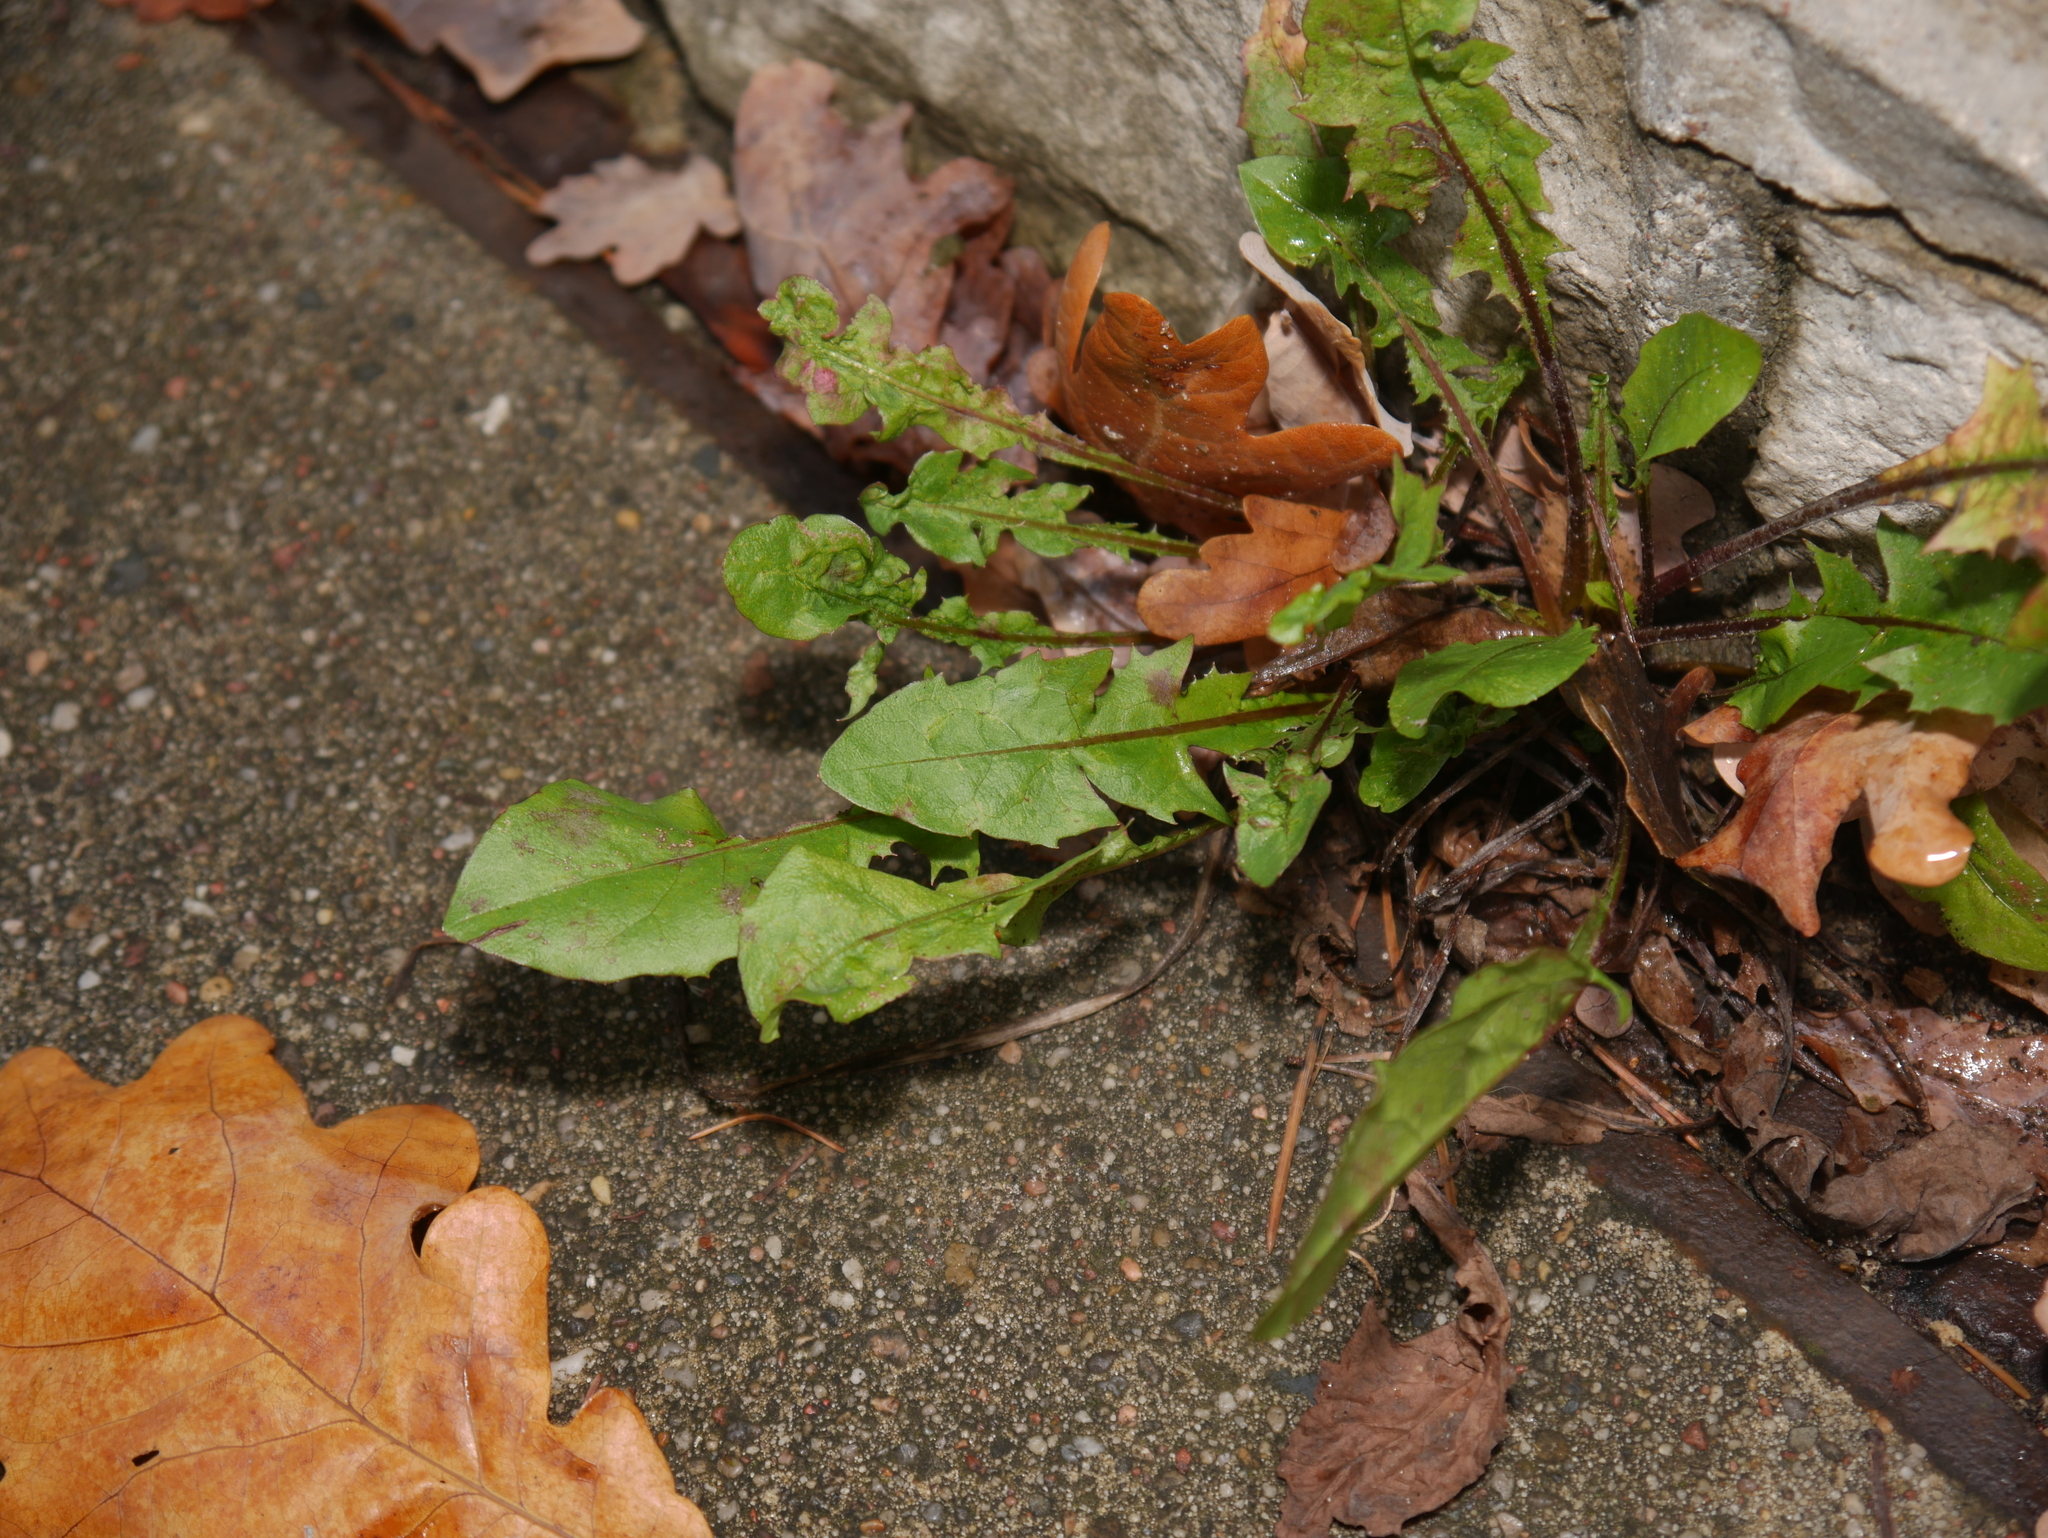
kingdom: Plantae
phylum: Tracheophyta
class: Magnoliopsida
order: Asterales
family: Asteraceae
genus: Taraxacum
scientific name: Taraxacum officinale
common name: Common dandelion
